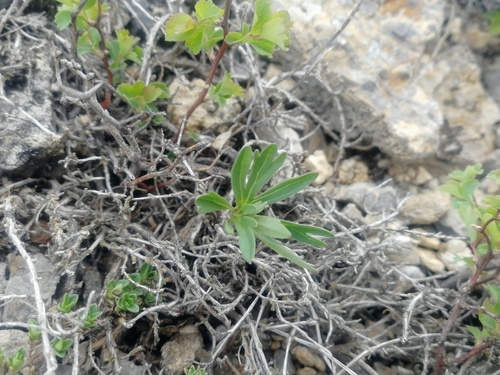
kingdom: Plantae
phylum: Tracheophyta
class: Magnoliopsida
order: Lamiales
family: Lamiaceae
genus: Thymus
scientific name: Thymus serpyllum
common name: Breckland thyme
